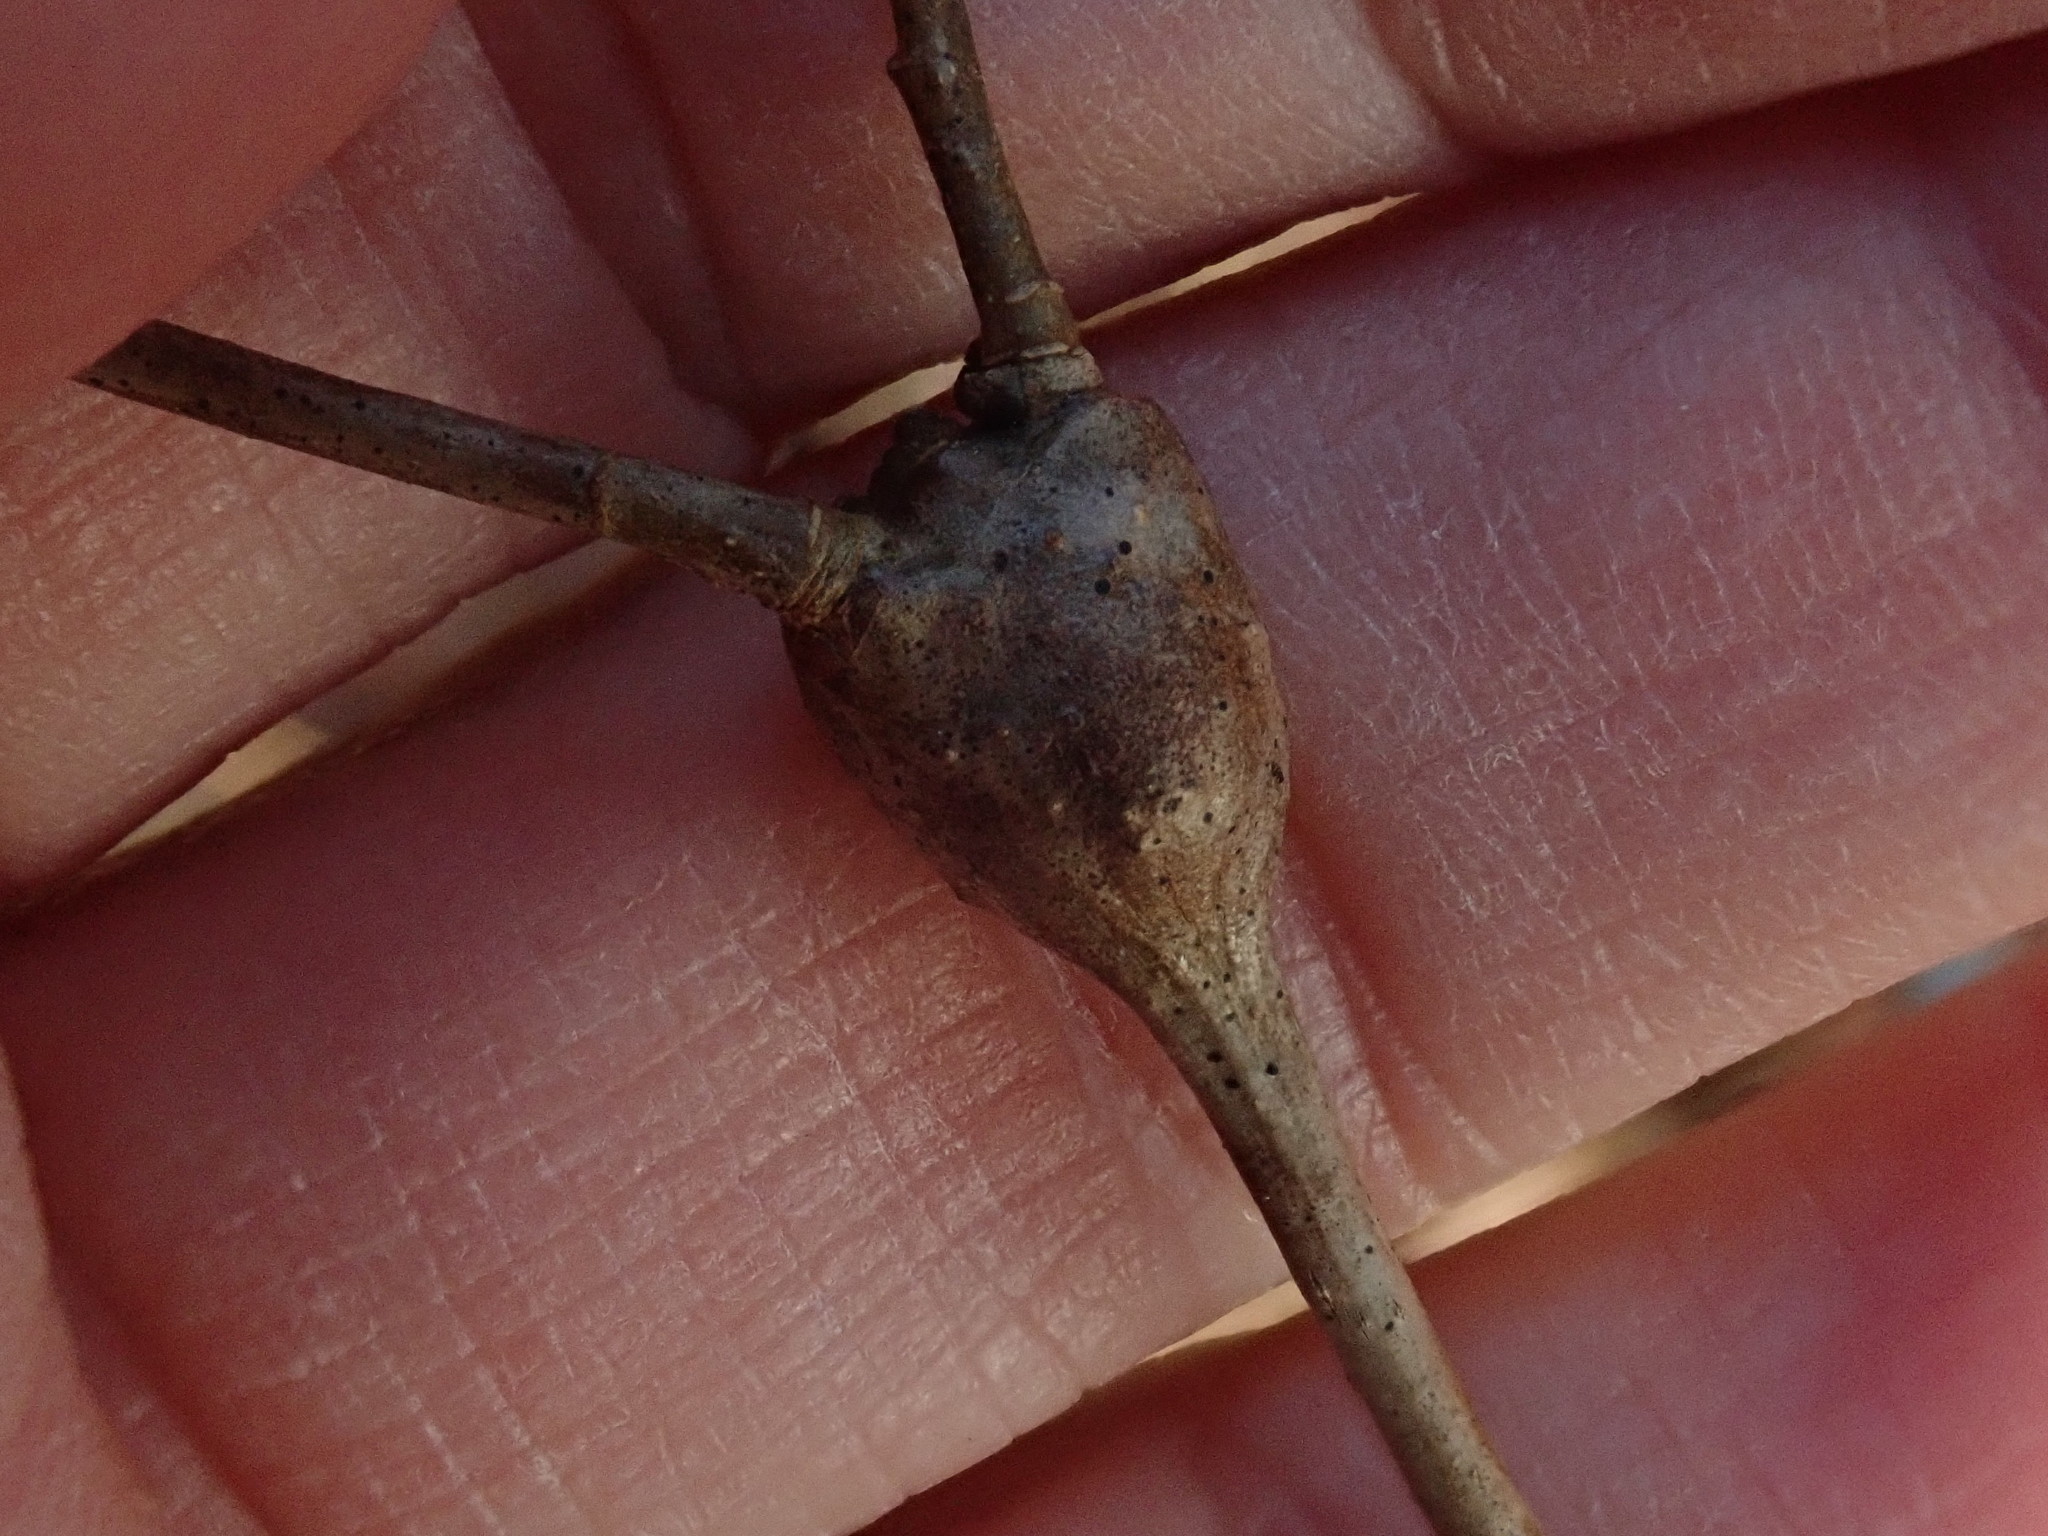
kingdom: Animalia
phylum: Arthropoda
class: Insecta
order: Hymenoptera
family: Cynipidae
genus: Callirhytis
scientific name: Callirhytis clavula
